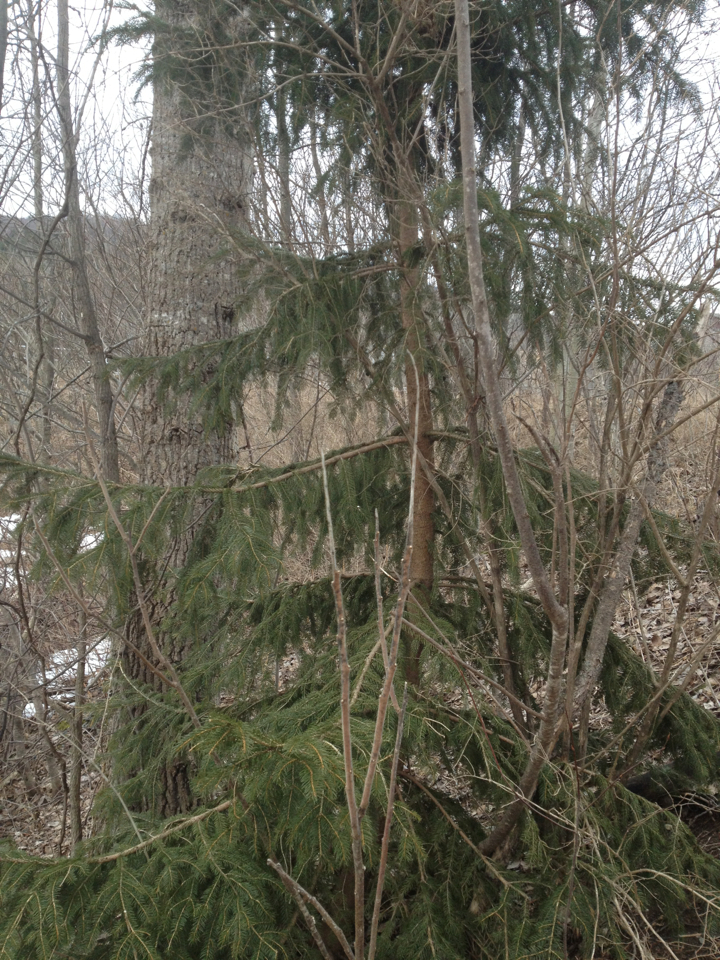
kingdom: Plantae
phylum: Tracheophyta
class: Pinopsida
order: Pinales
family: Pinaceae
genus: Picea
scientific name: Picea abies
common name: Norway spruce
